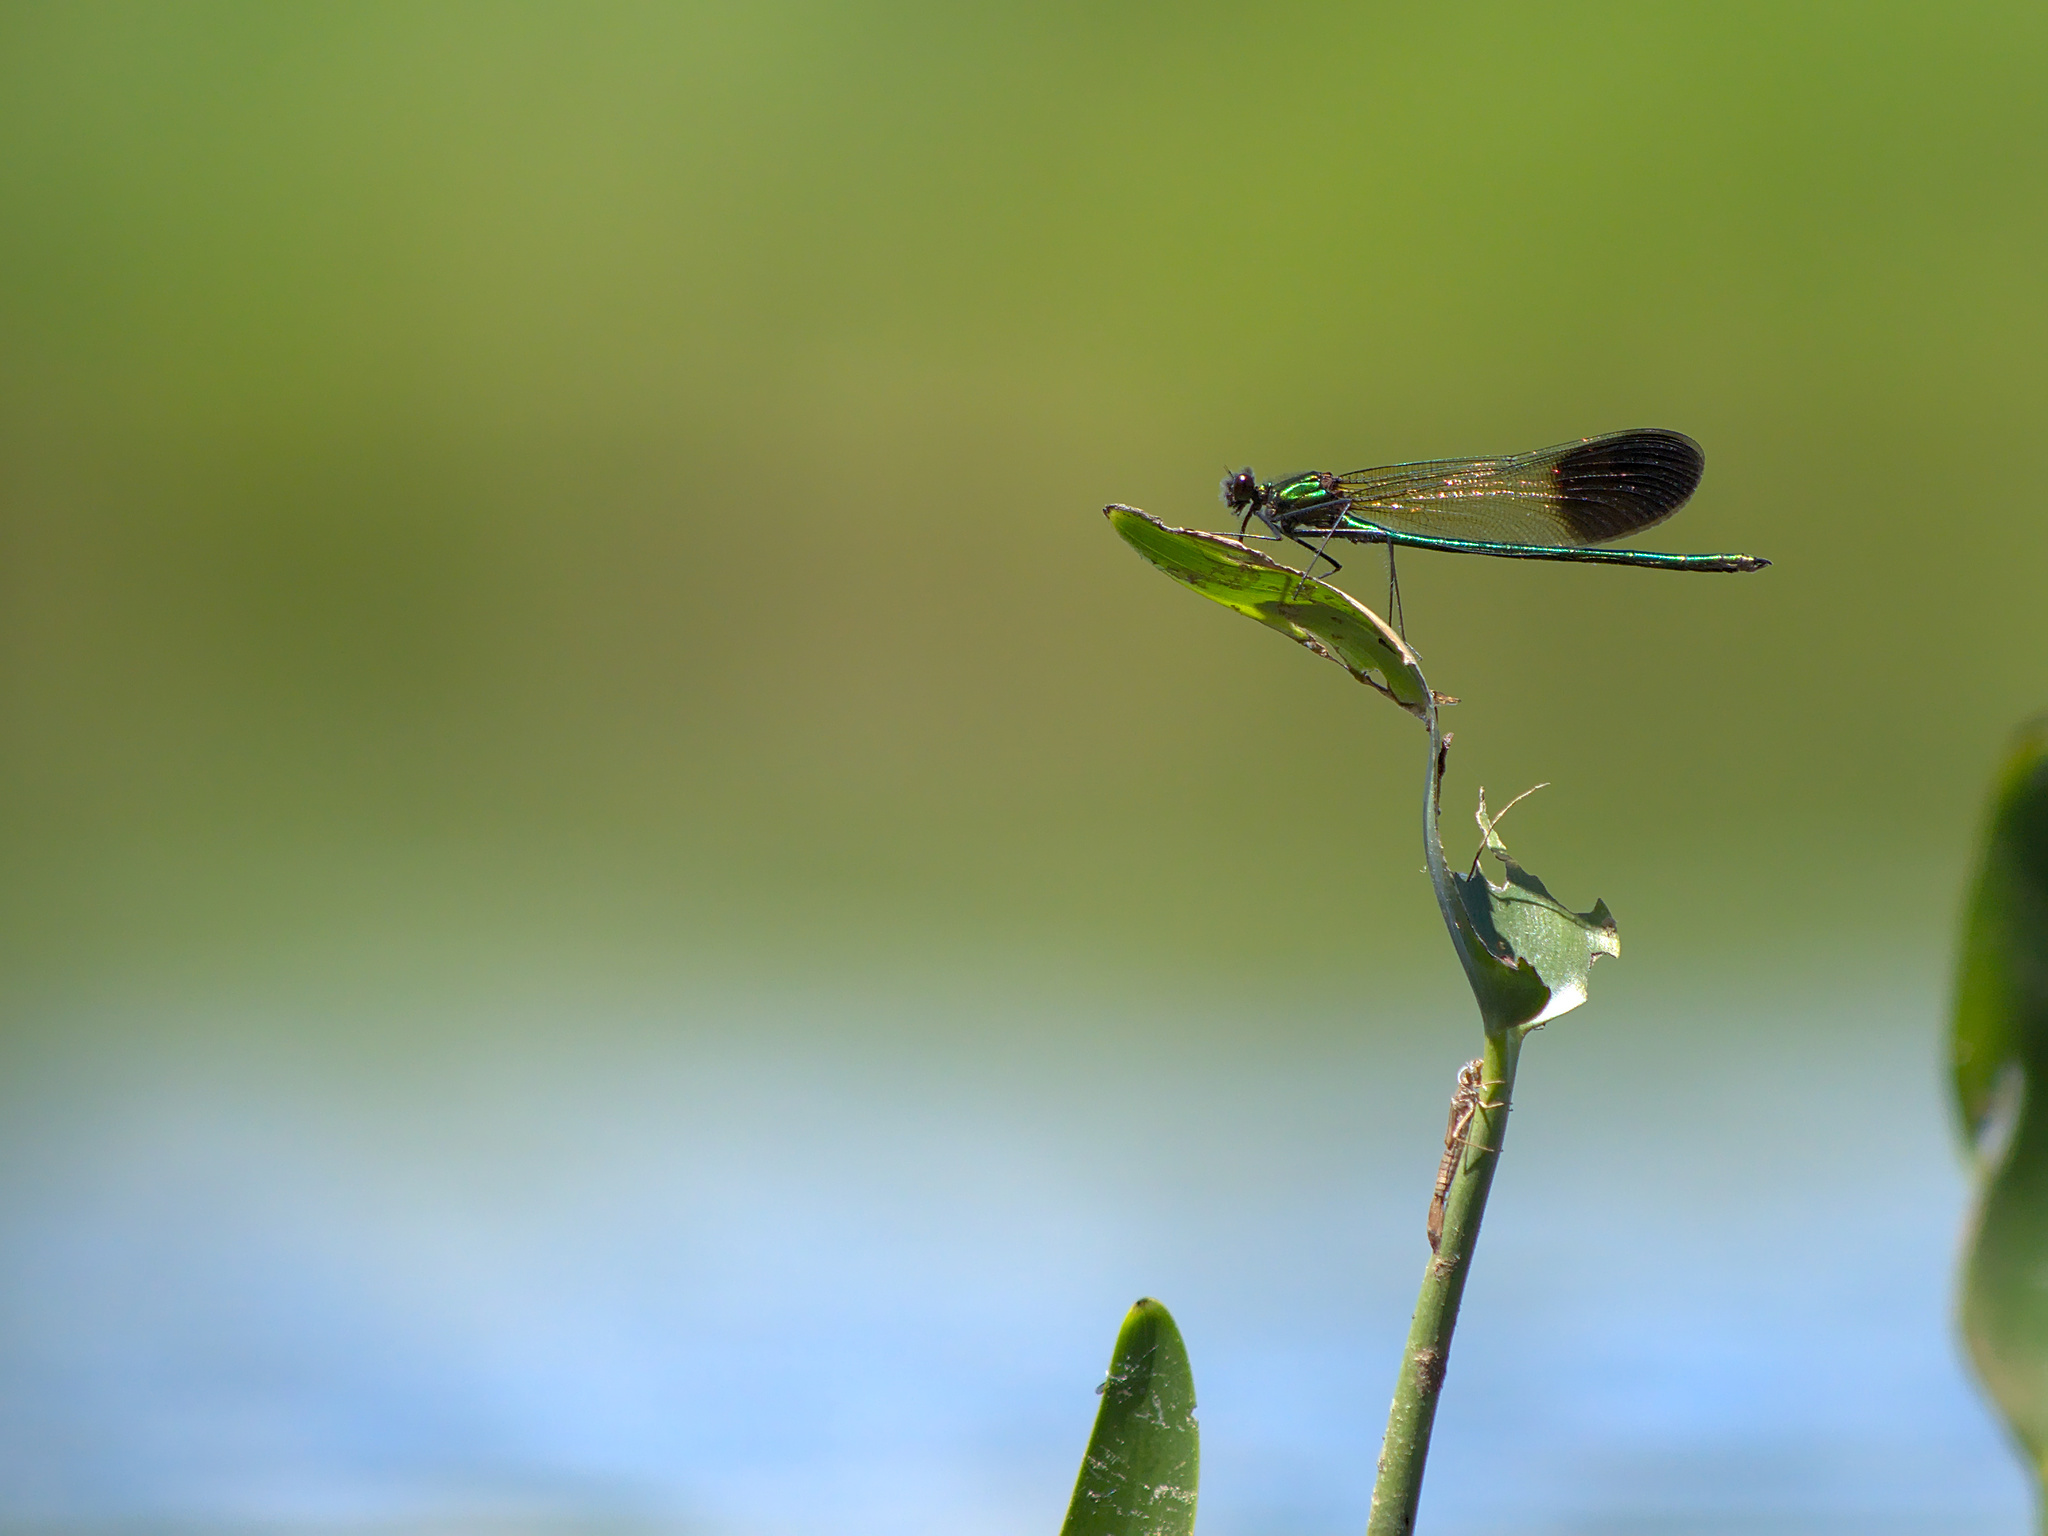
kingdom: Animalia
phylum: Arthropoda
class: Insecta
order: Odonata
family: Calopterygidae
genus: Calopteryx
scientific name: Calopteryx aequabilis
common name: River jewelwing
